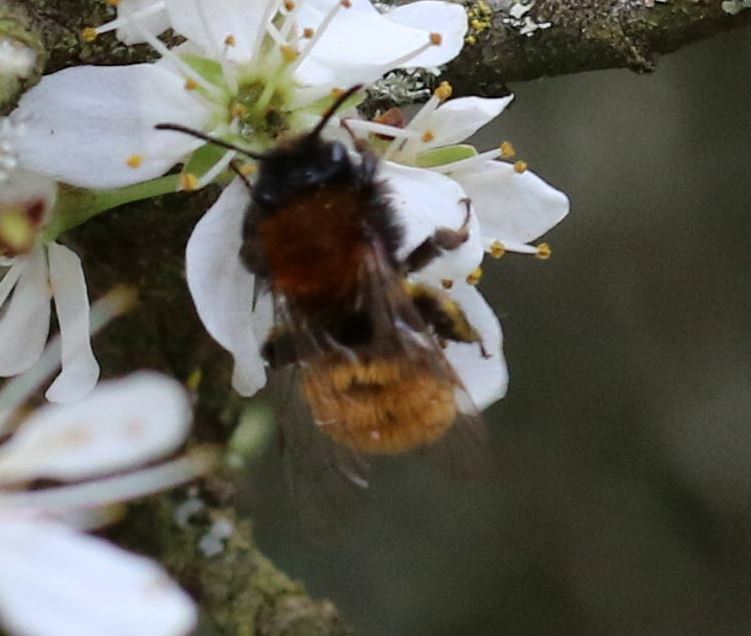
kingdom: Animalia
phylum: Arthropoda
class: Insecta
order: Hymenoptera
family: Andrenidae
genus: Andrena
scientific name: Andrena fulva
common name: Tawny mining bee
